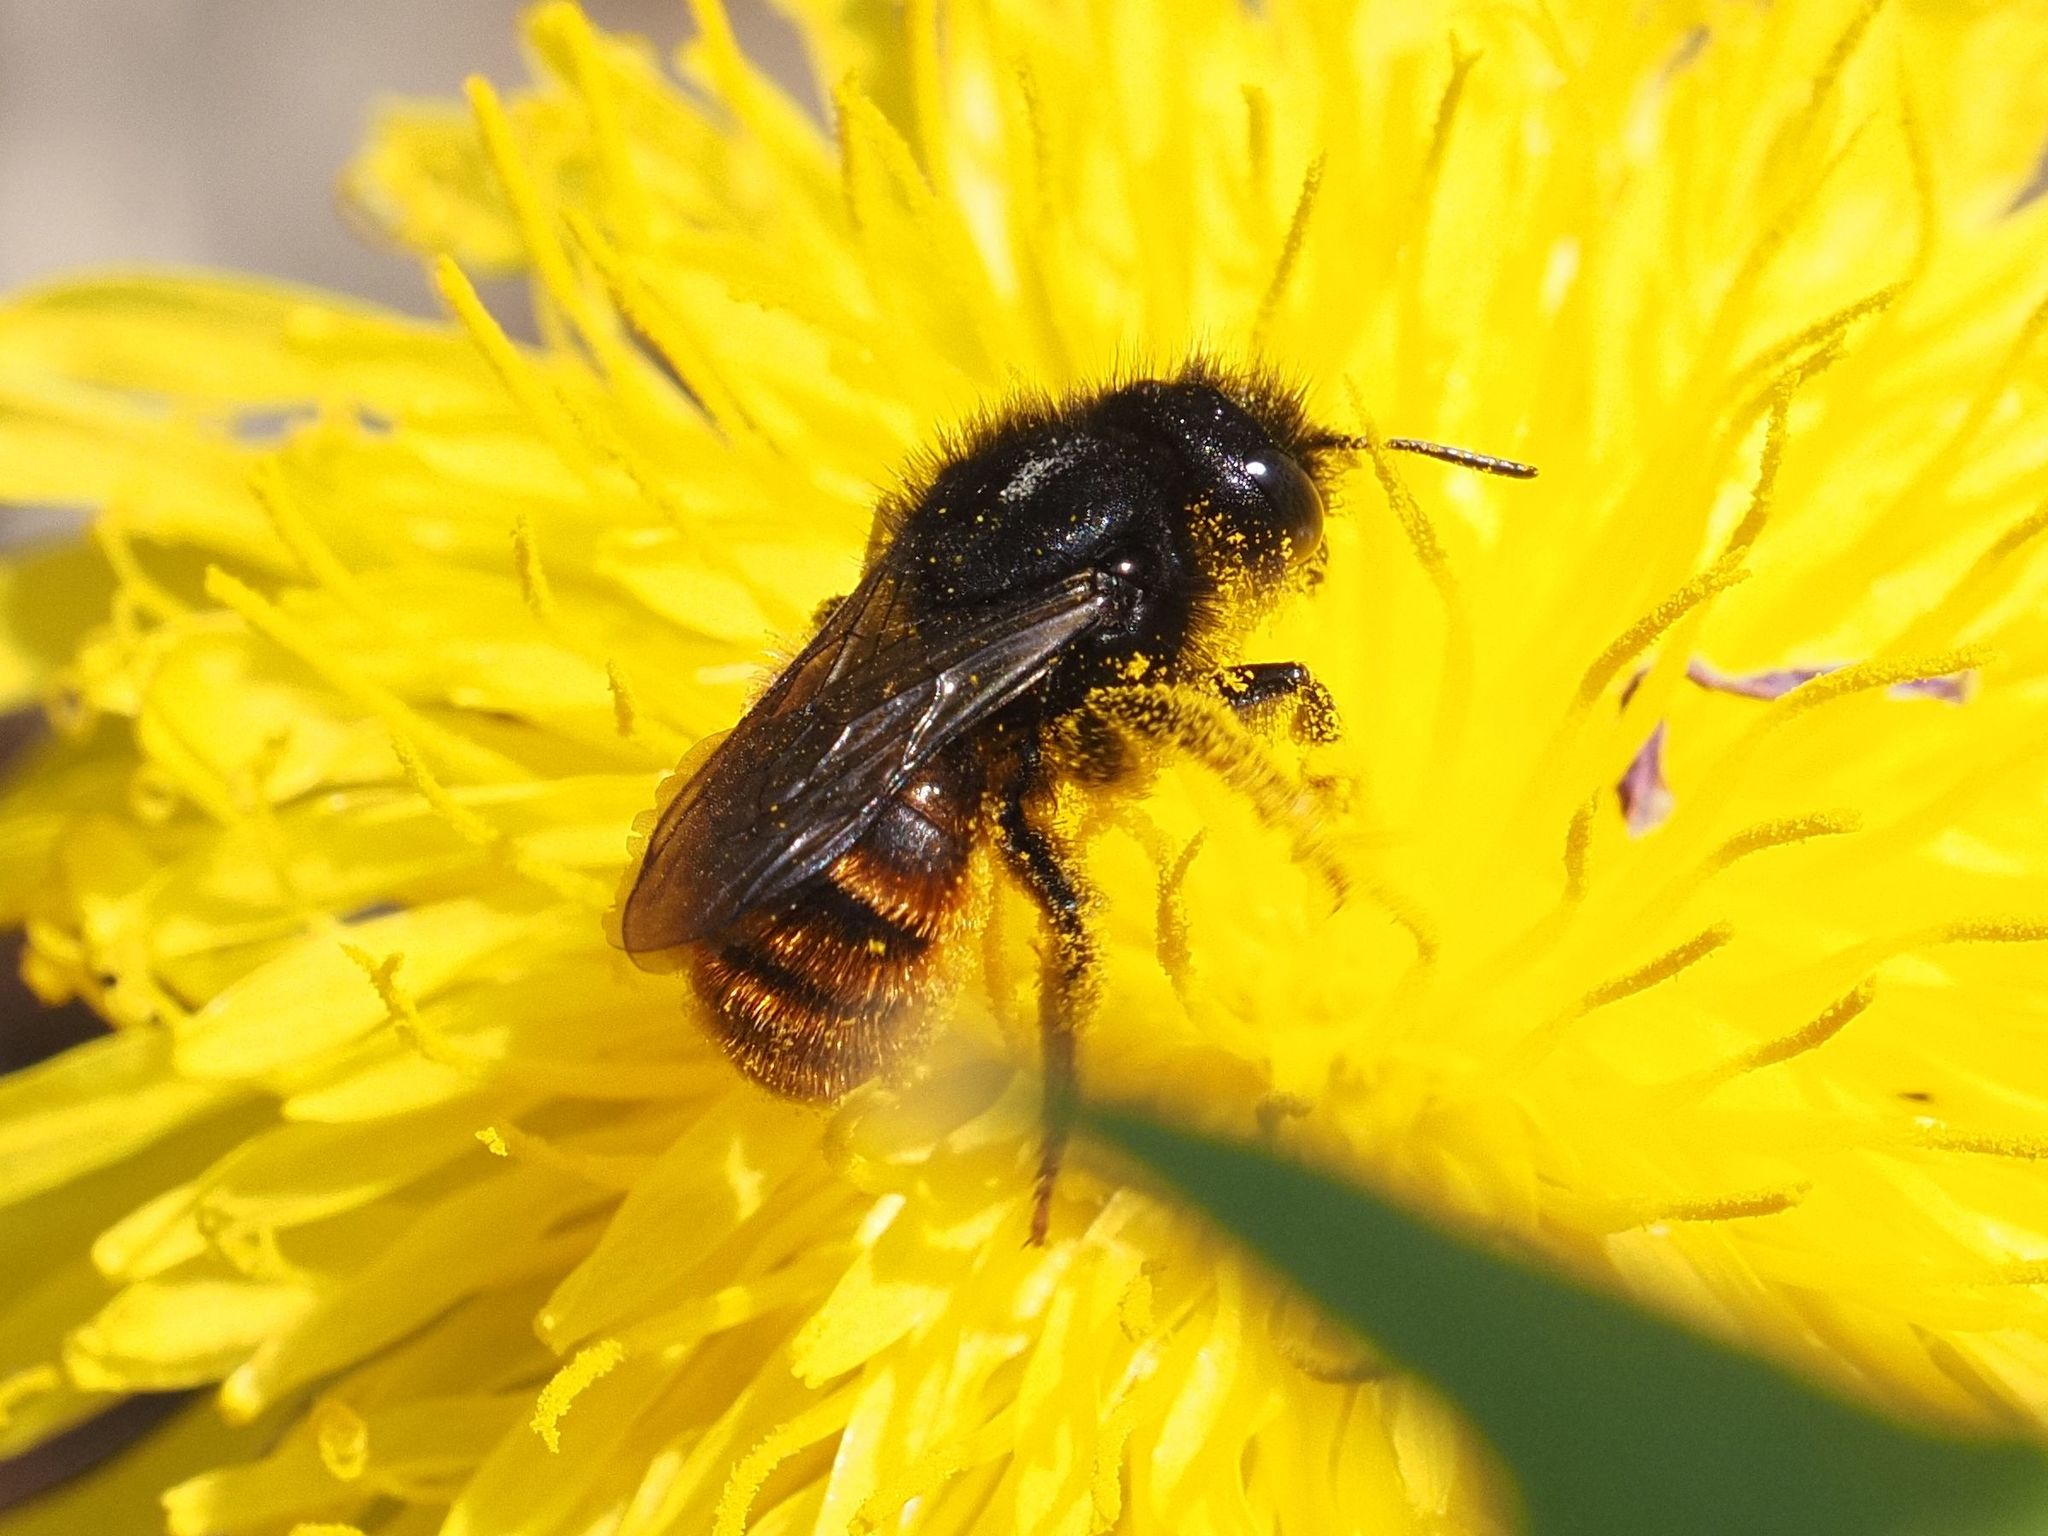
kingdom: Animalia
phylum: Arthropoda
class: Insecta
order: Hymenoptera
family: Megachilidae
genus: Osmia
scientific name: Osmia bicolor
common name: Red-tailed mason bee
